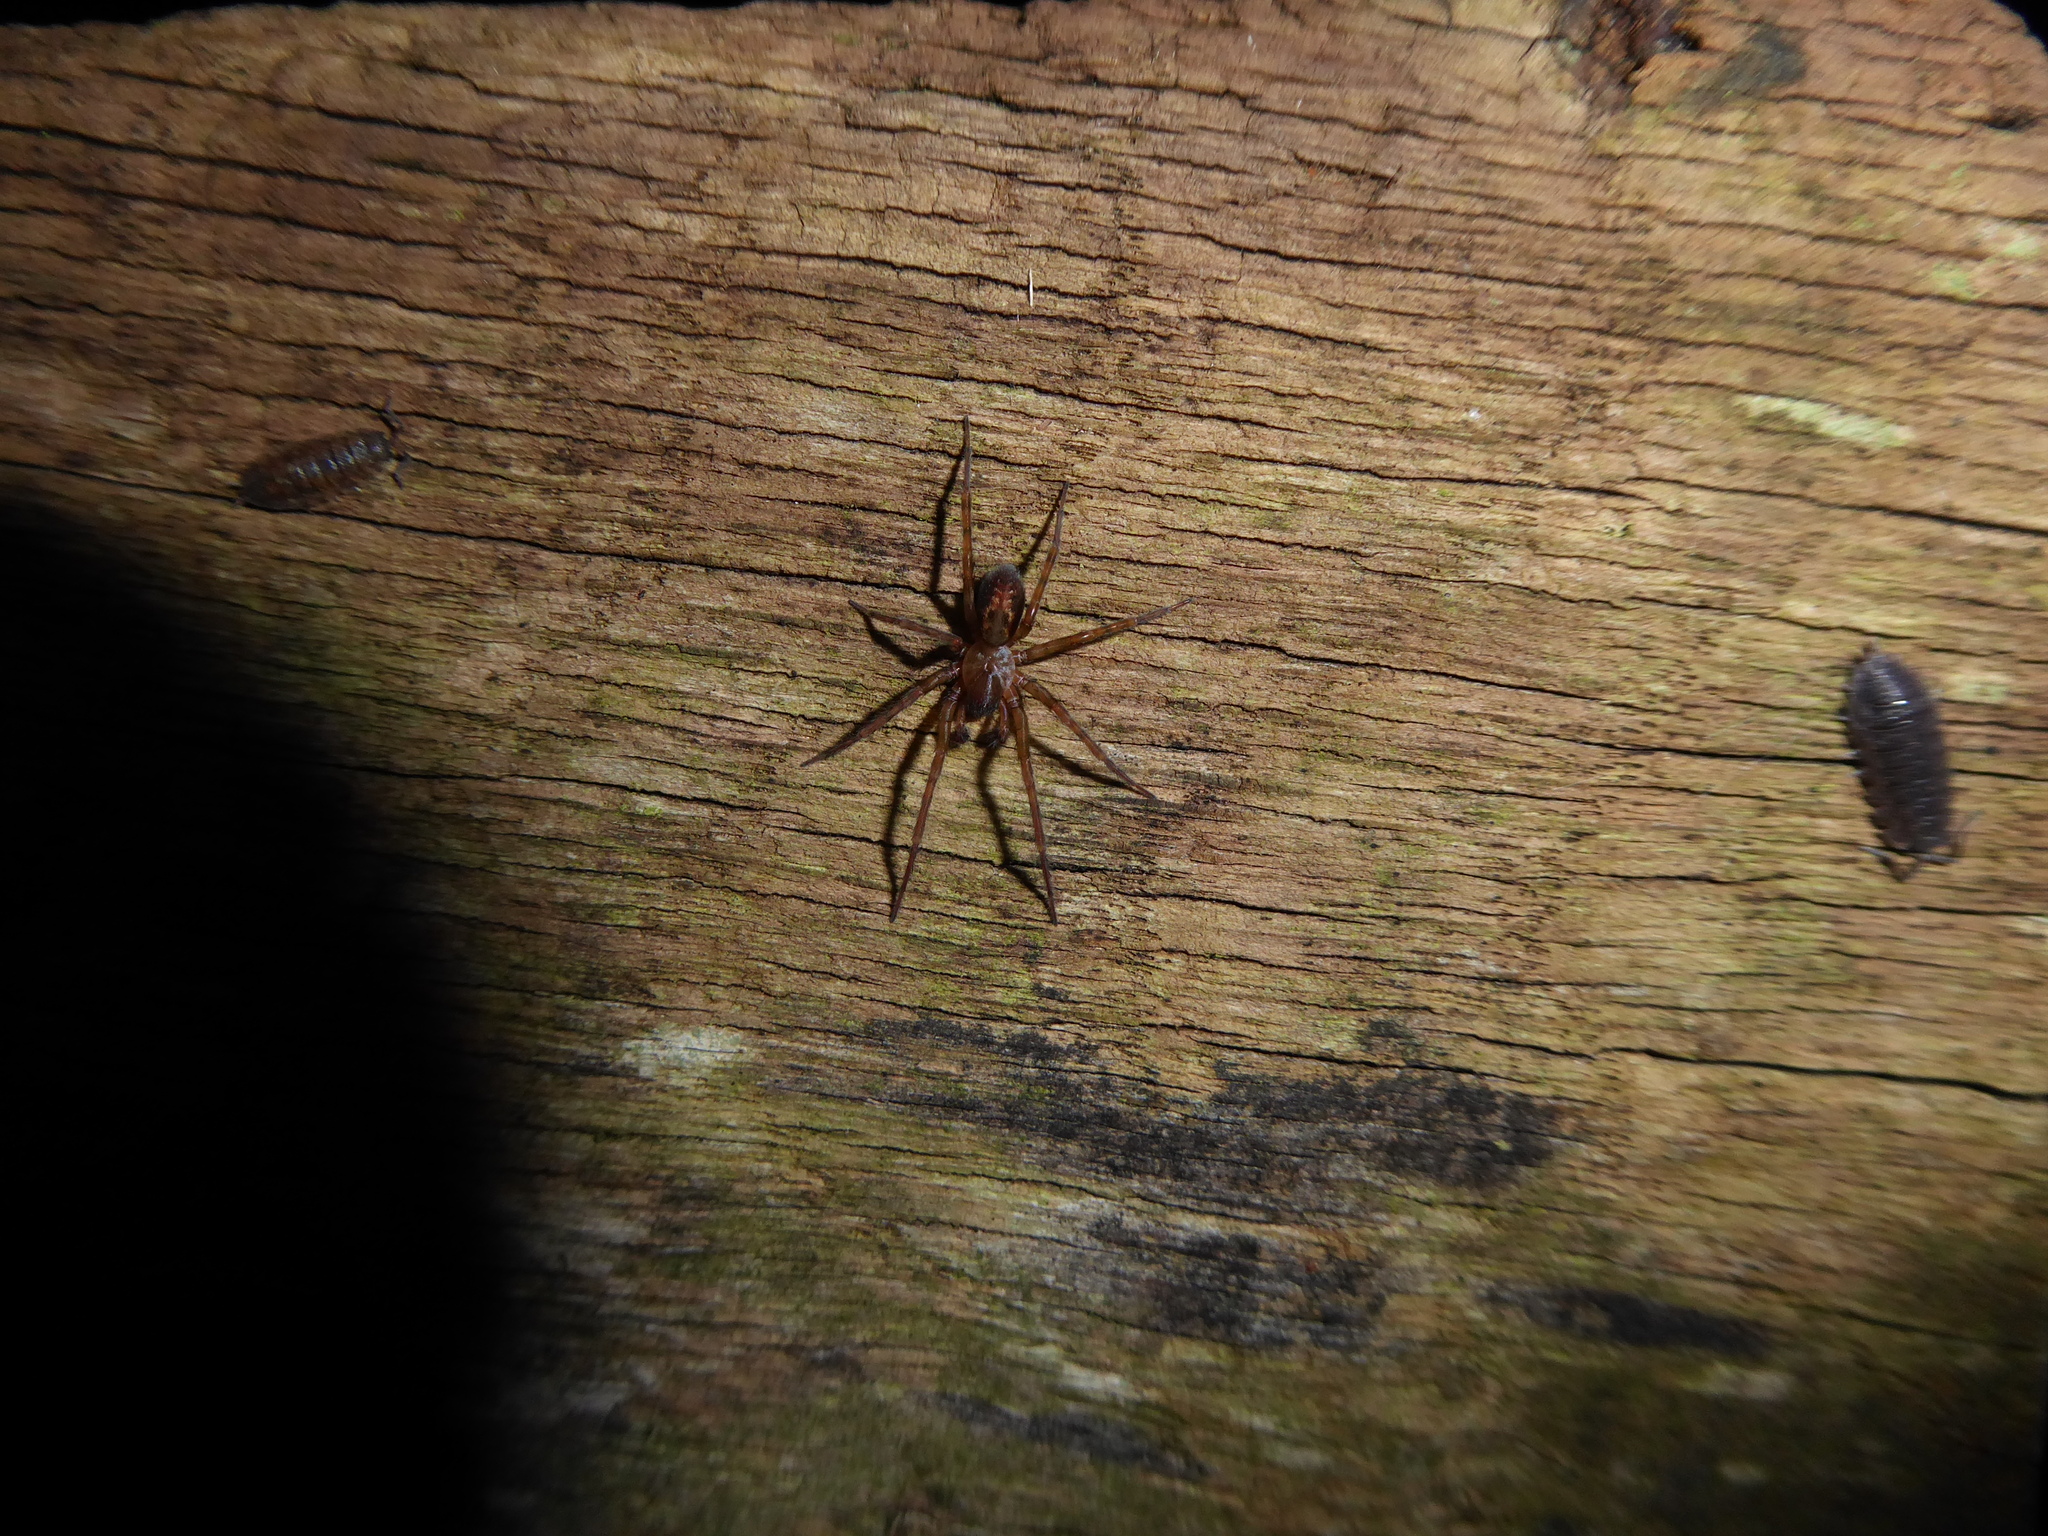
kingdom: Animalia
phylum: Arthropoda
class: Arachnida
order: Araneae
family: Amaurobiidae
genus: Amaurobius
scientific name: Amaurobius
